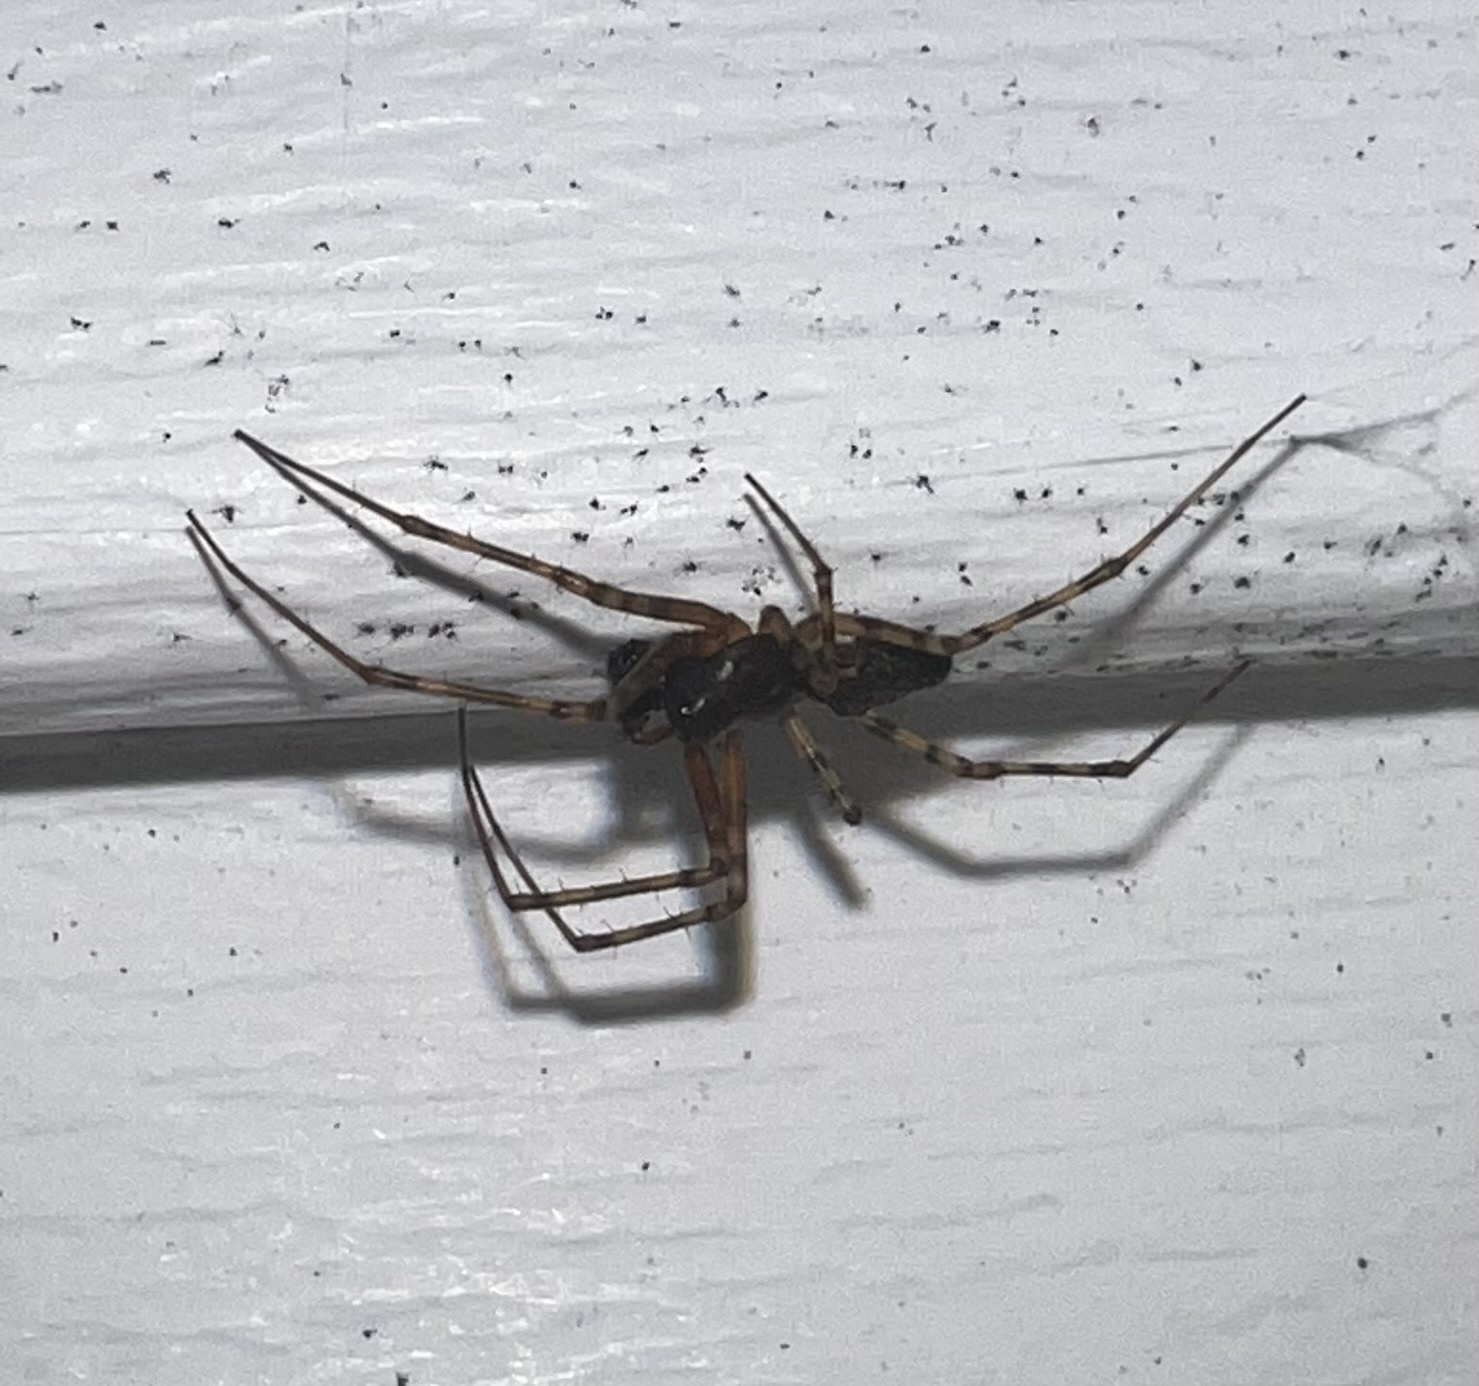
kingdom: Animalia
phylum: Arthropoda
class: Arachnida
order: Araneae
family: Linyphiidae
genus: Neriene
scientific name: Neriene montana
